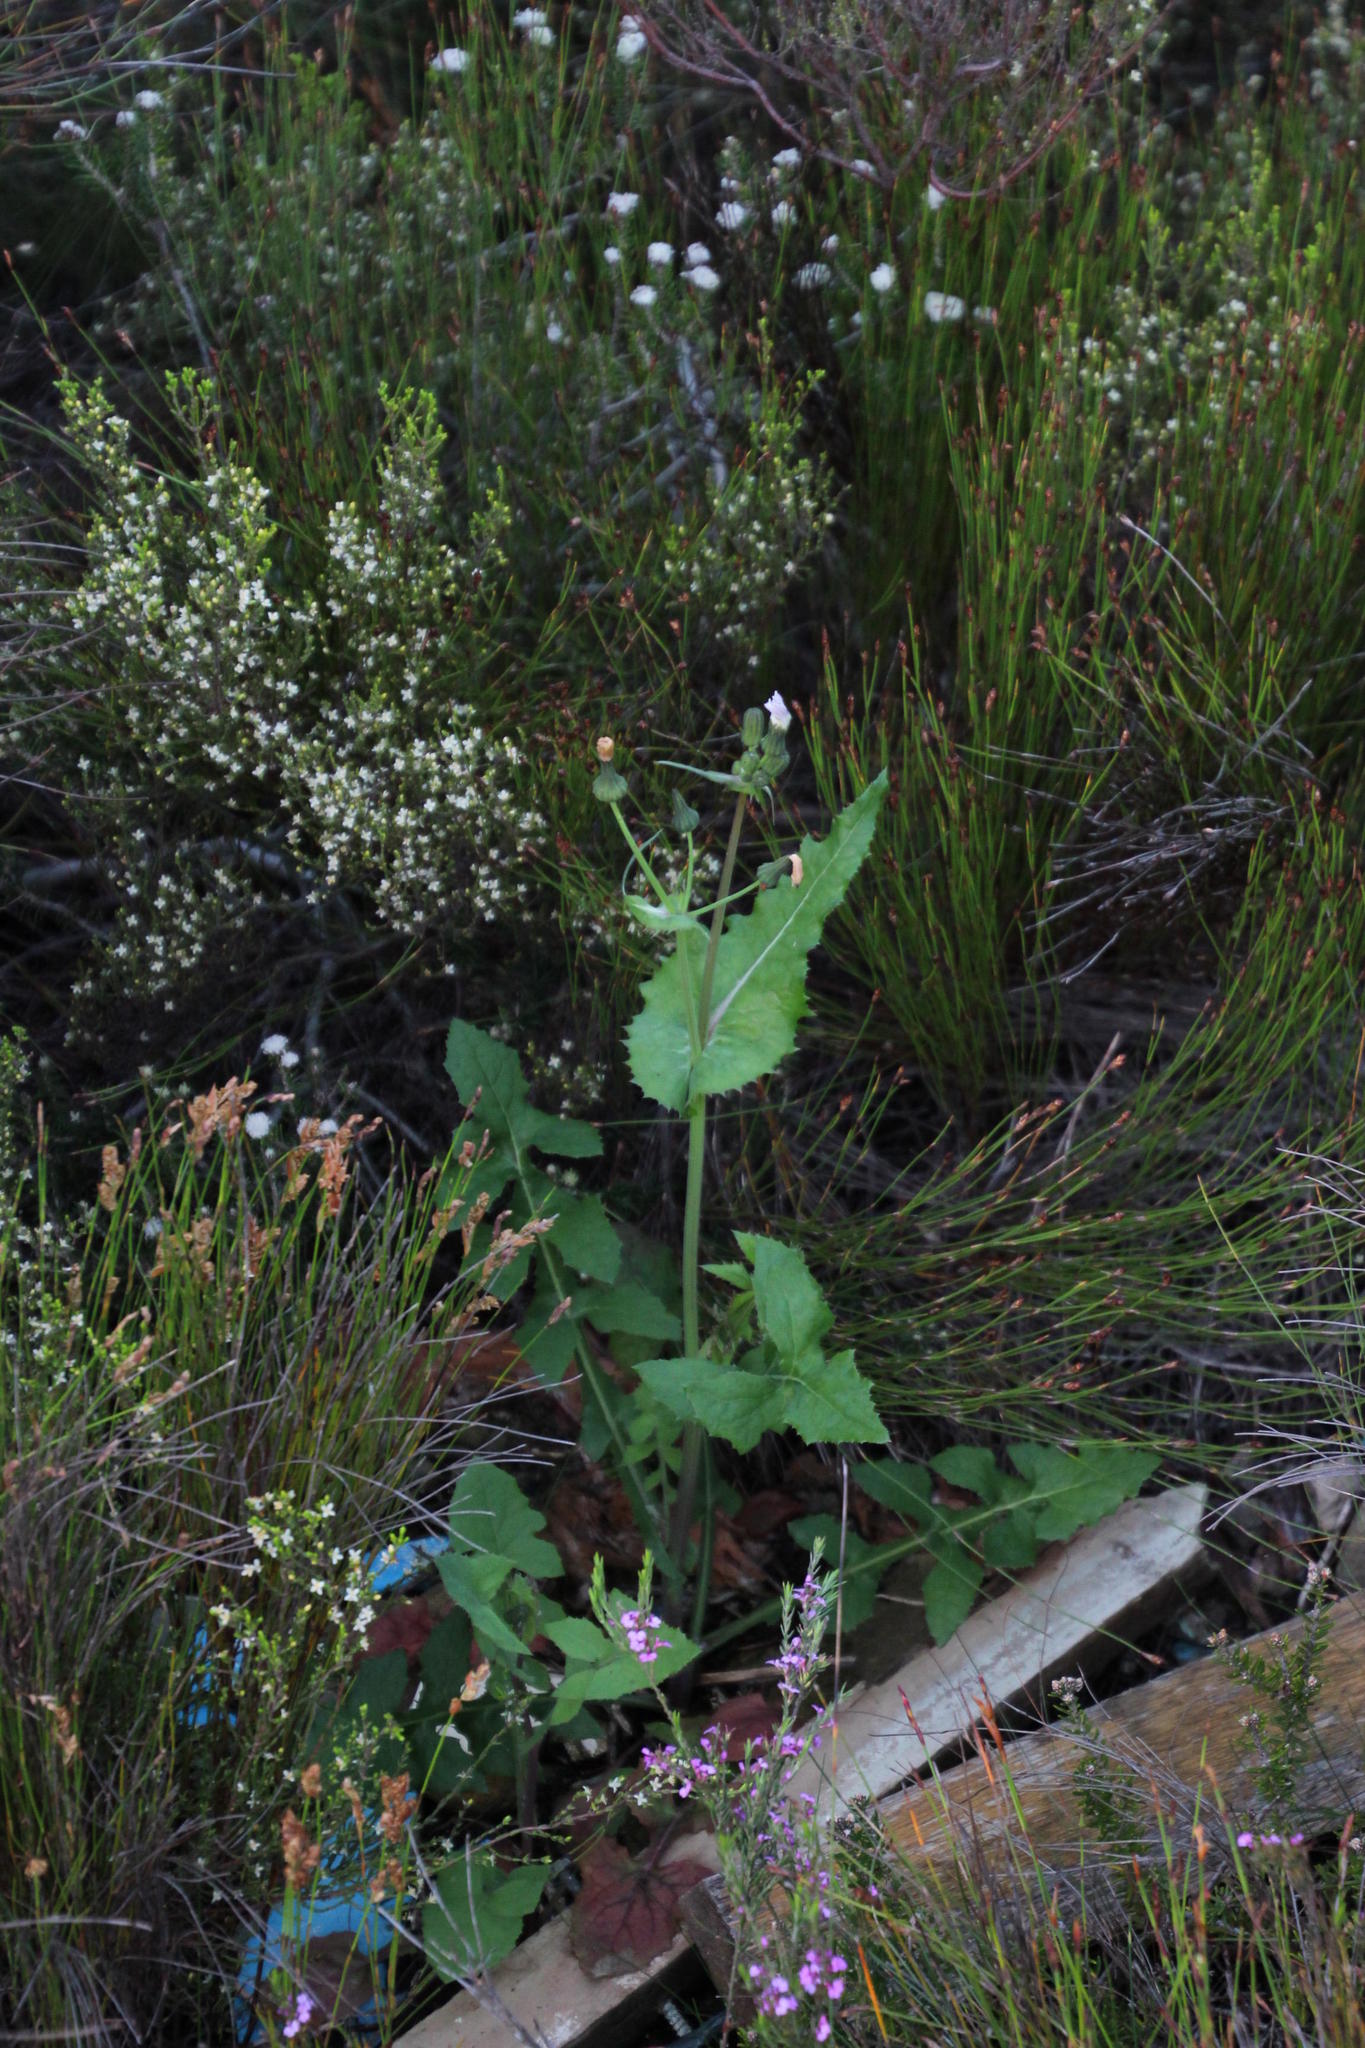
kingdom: Plantae
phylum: Tracheophyta
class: Magnoliopsida
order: Asterales
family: Asteraceae
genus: Sonchus
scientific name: Sonchus oleraceus
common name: Common sowthistle
